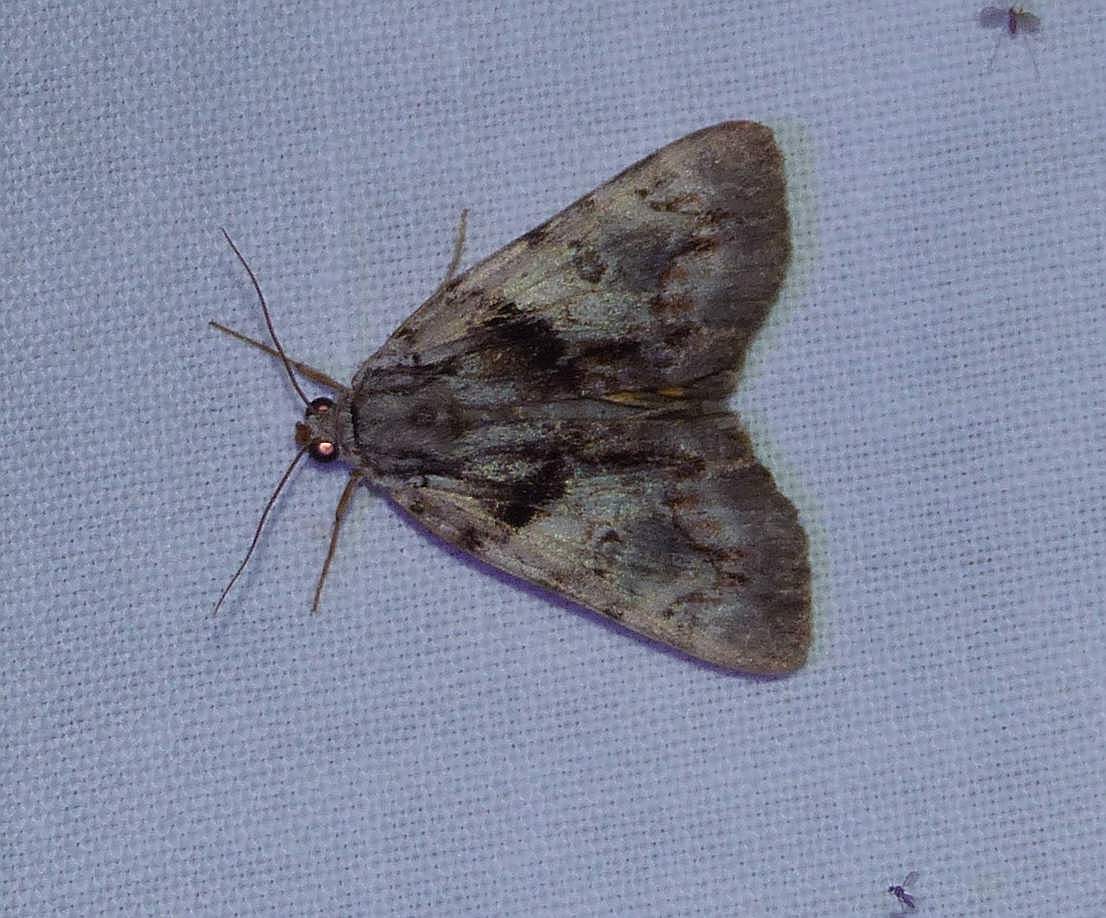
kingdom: Animalia
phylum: Arthropoda
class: Insecta
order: Lepidoptera
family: Erebidae
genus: Catocala
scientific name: Catocala blandula
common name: Charming underwing
